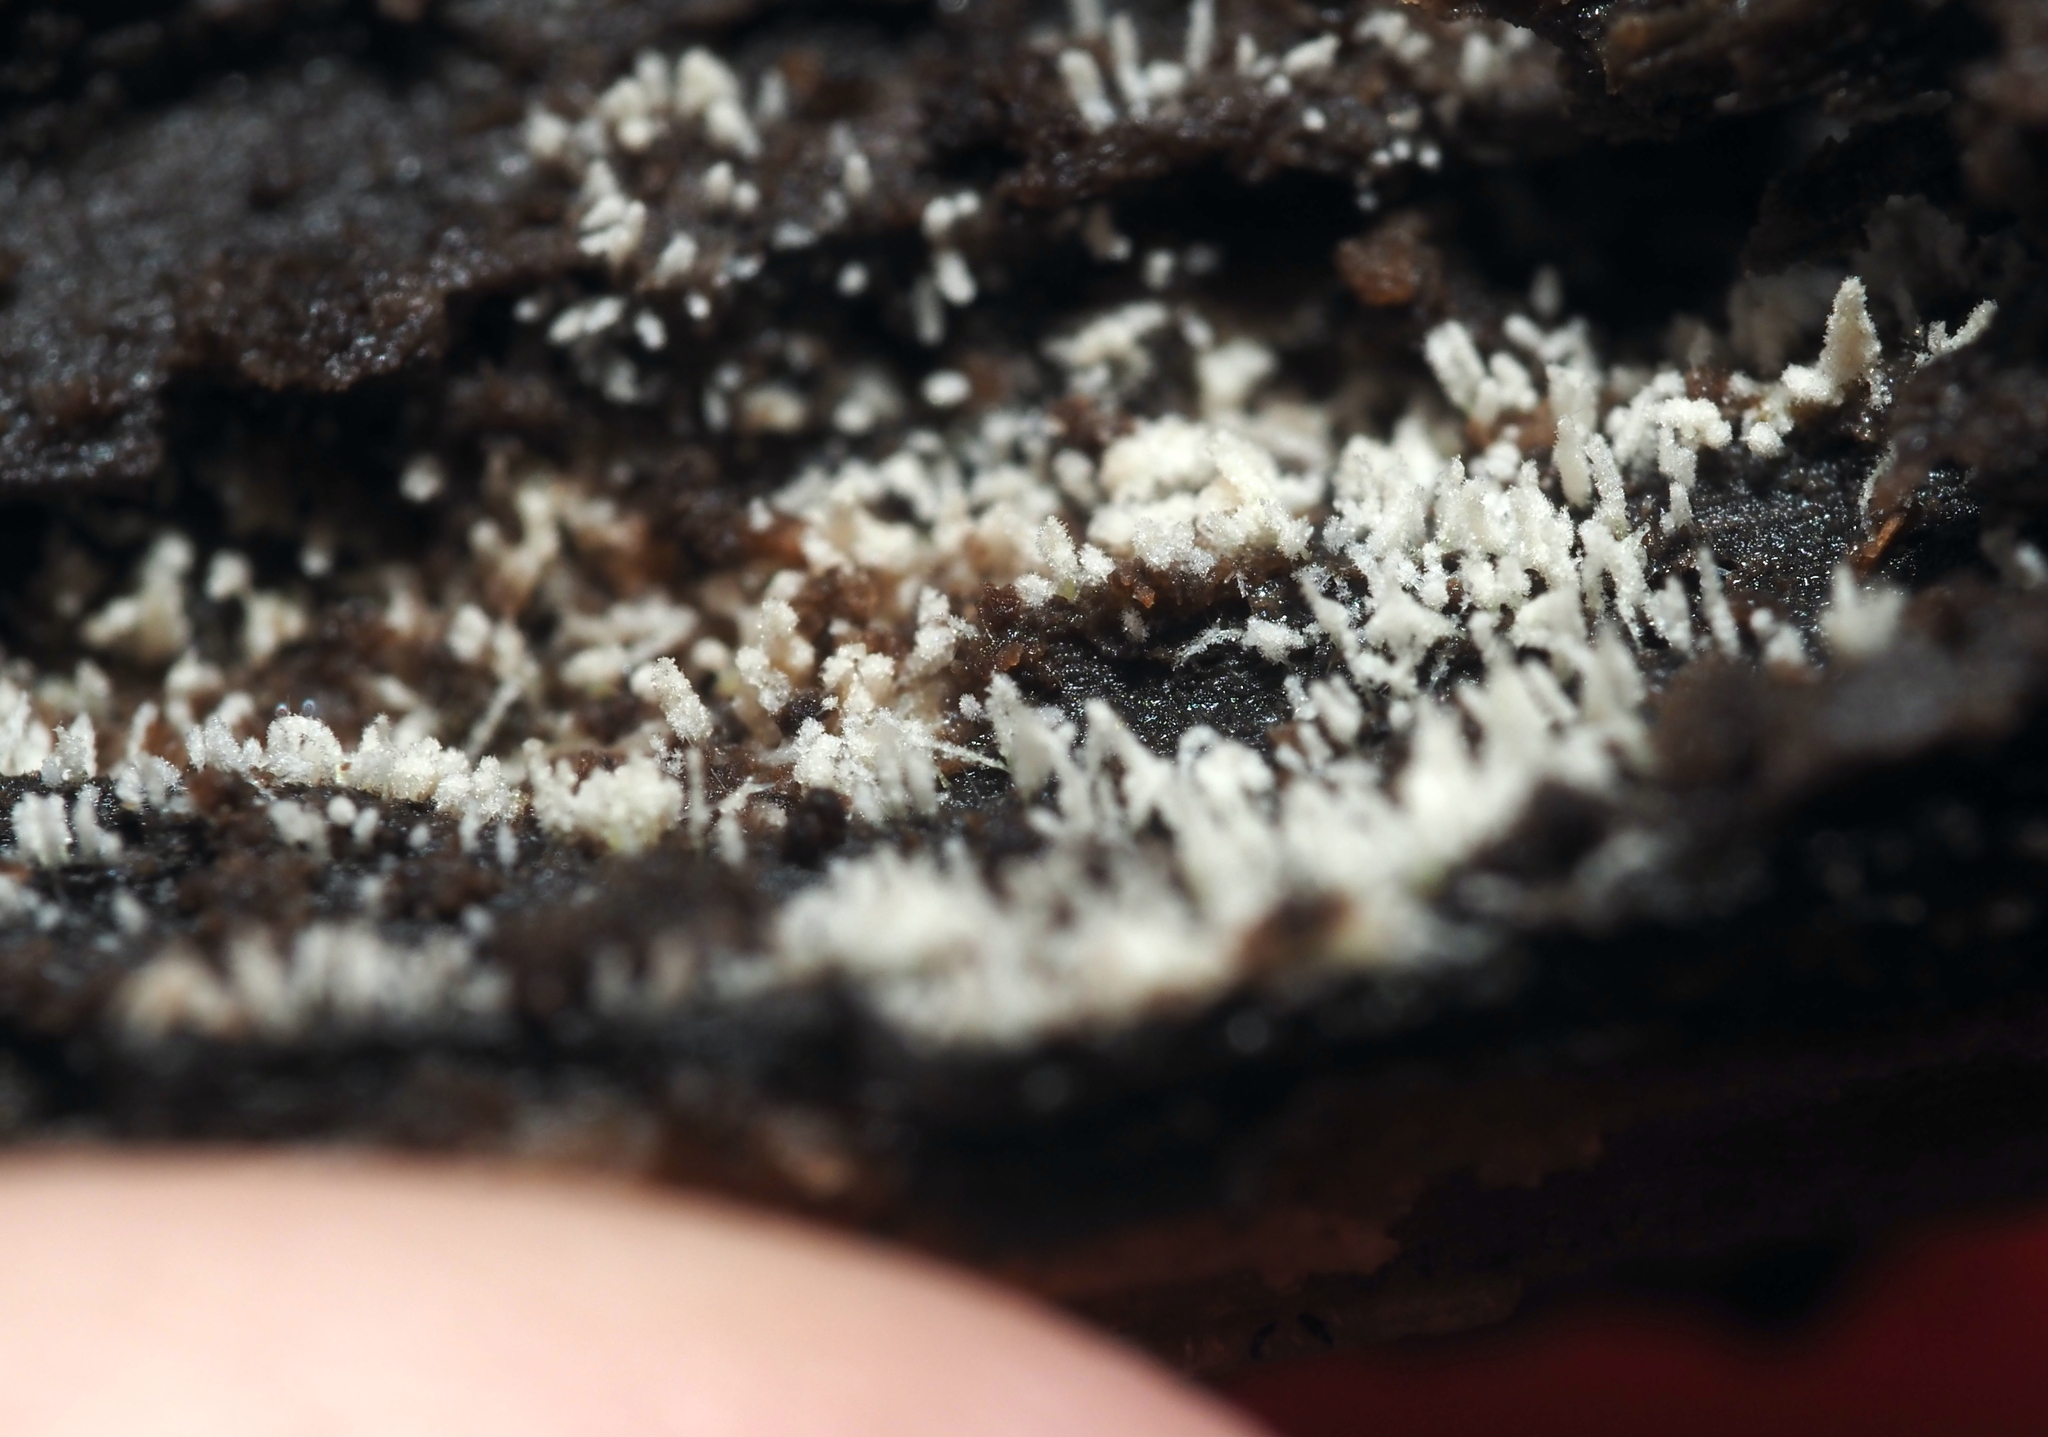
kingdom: Fungi
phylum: Basidiomycota
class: Agaricomycetes
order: Agaricales
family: Marasmiaceae
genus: Henningsomyces
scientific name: Henningsomyces candidus
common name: White tubelet
